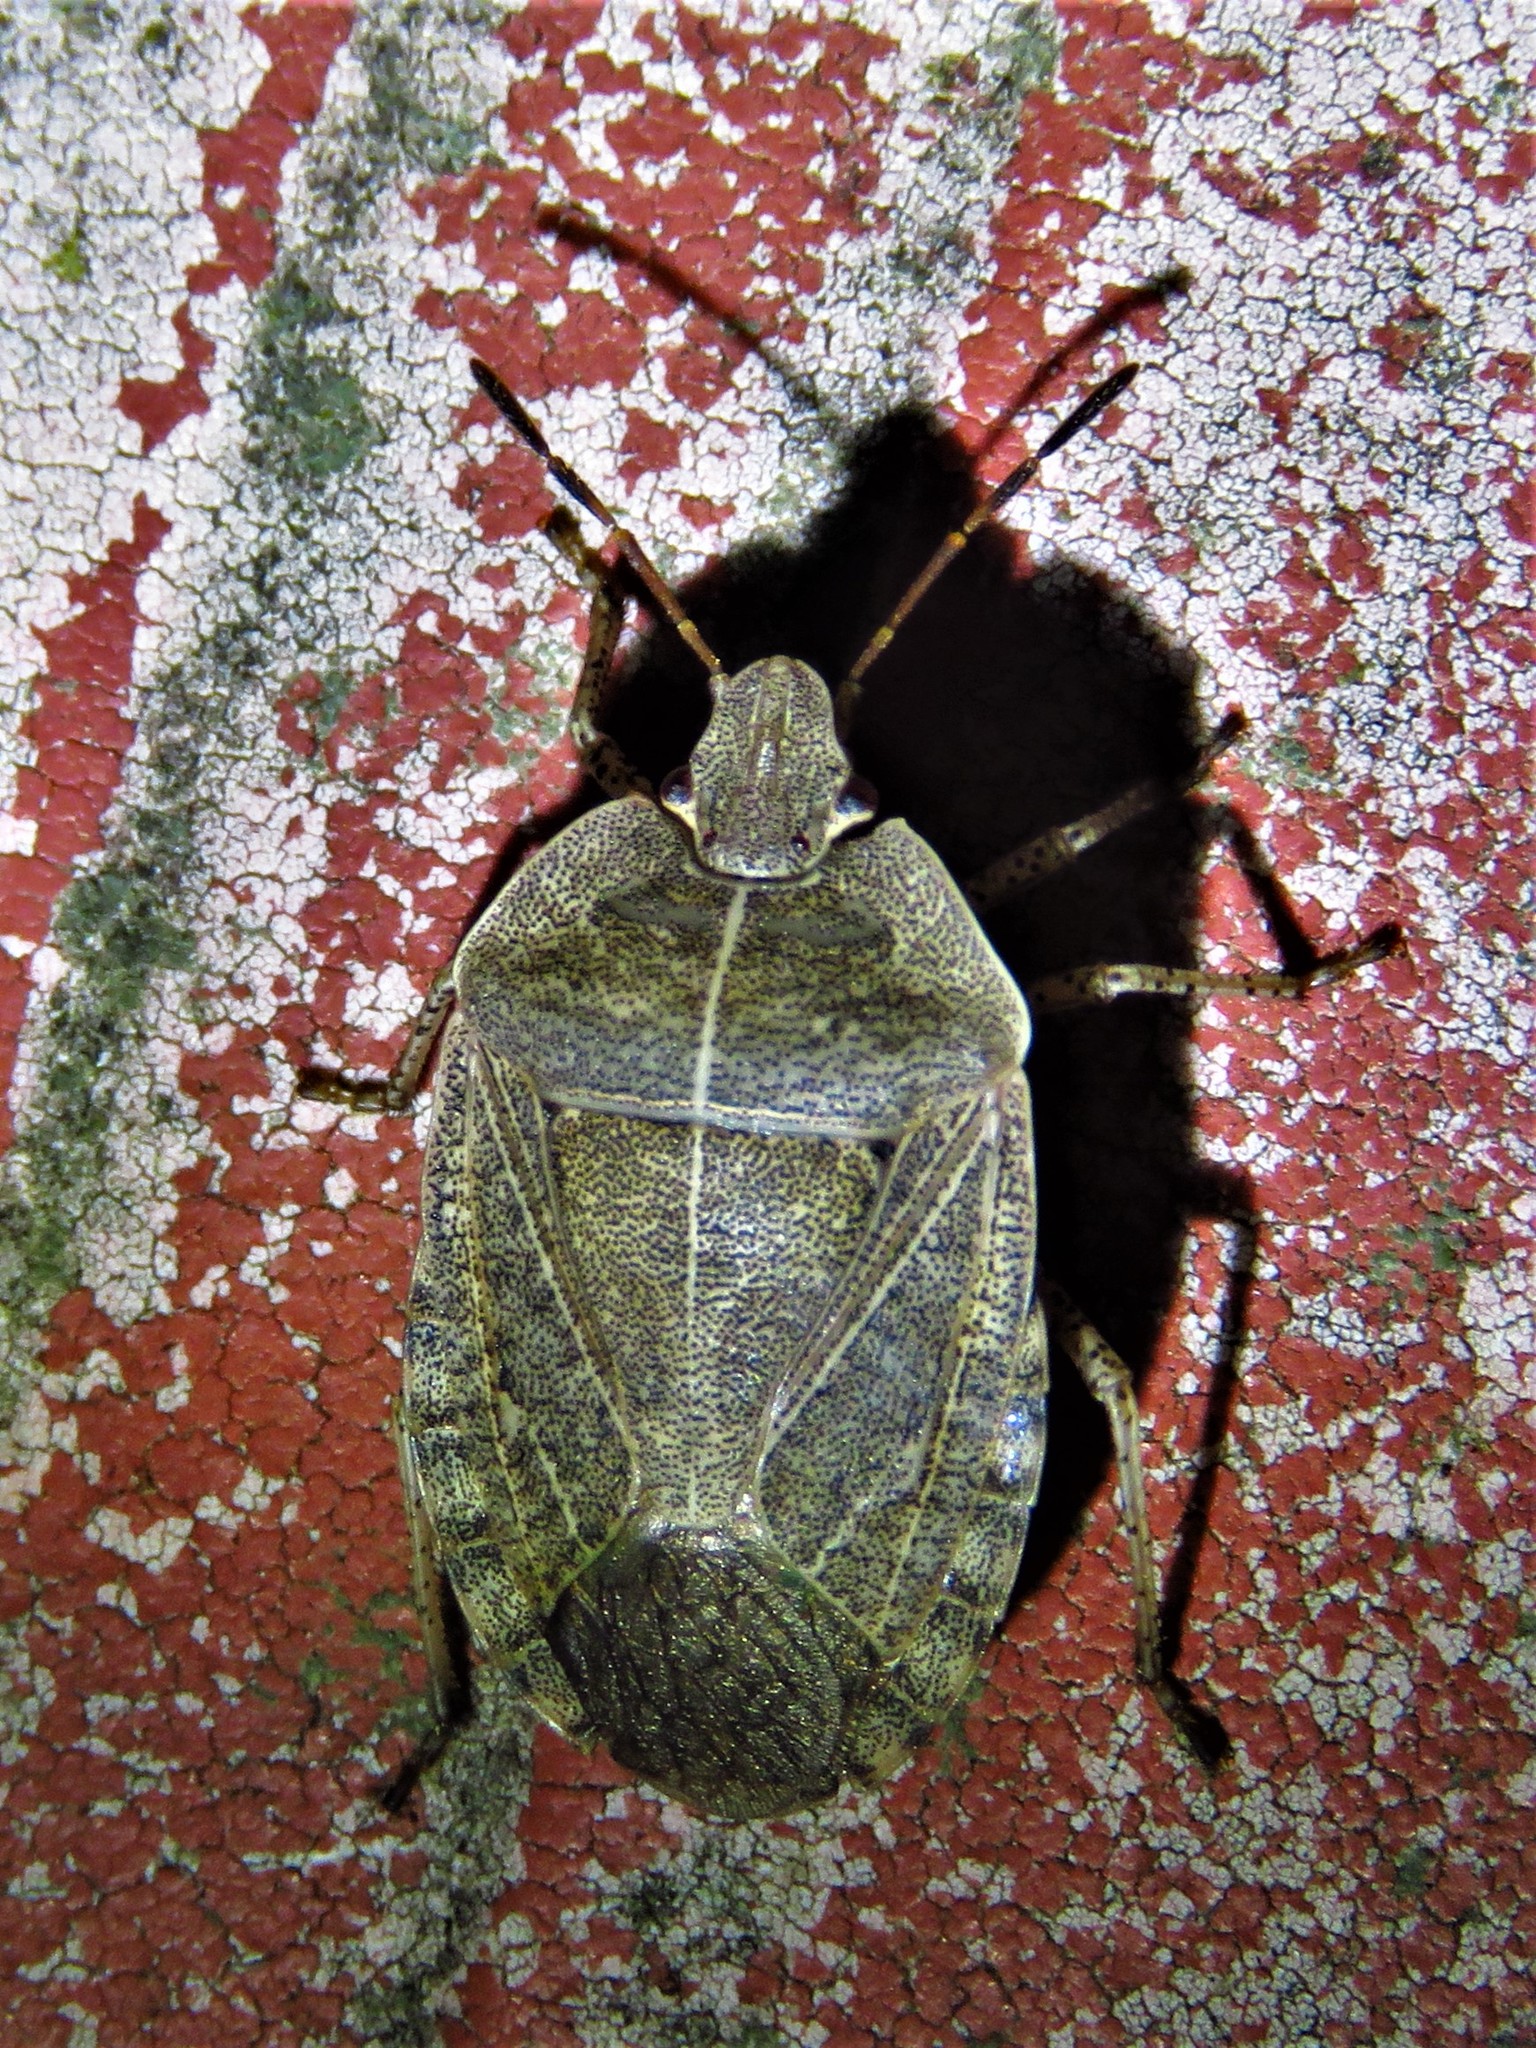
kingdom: Animalia
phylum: Arthropoda
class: Insecta
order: Hemiptera
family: Pentatomidae
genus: Menecles
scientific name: Menecles insertus
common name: Elf shoe stink bug
